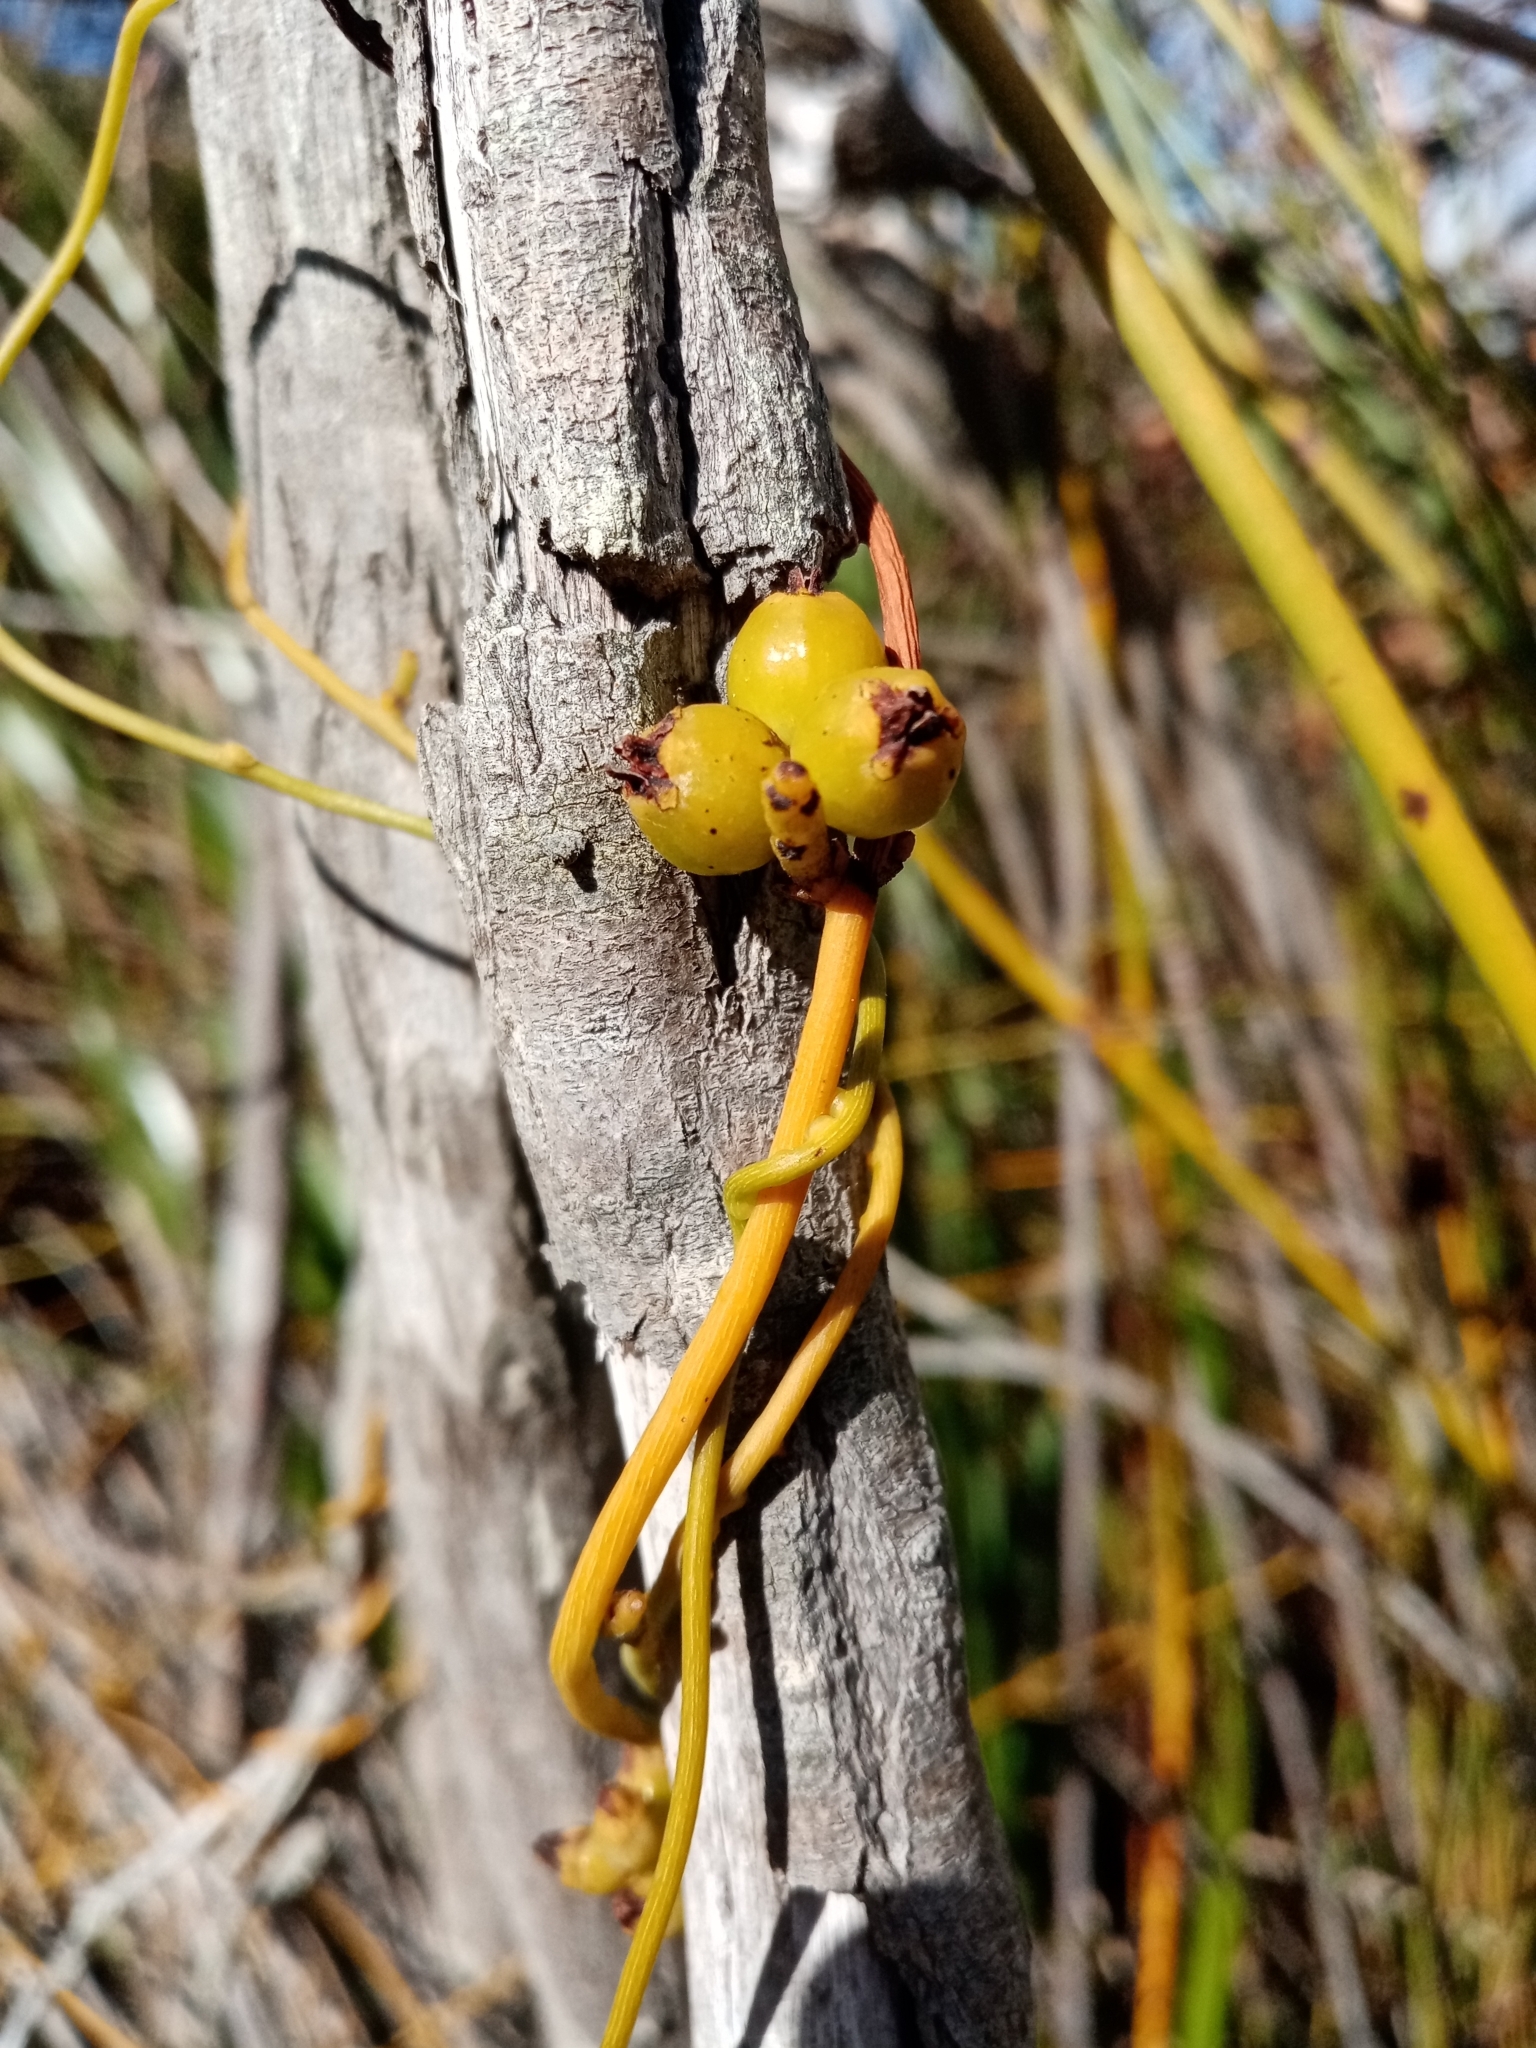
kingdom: Plantae
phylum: Tracheophyta
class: Magnoliopsida
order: Laurales
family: Lauraceae
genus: Cassytha
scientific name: Cassytha ciliolata
